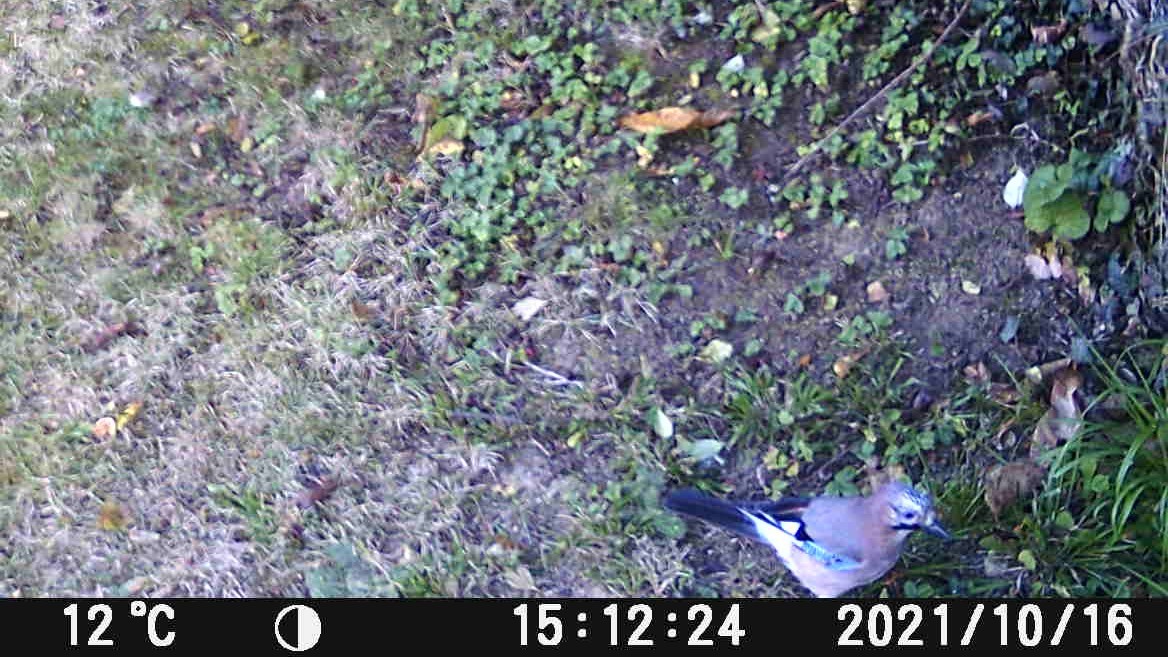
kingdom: Animalia
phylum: Chordata
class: Aves
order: Passeriformes
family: Corvidae
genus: Garrulus
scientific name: Garrulus glandarius
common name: Eurasian jay
